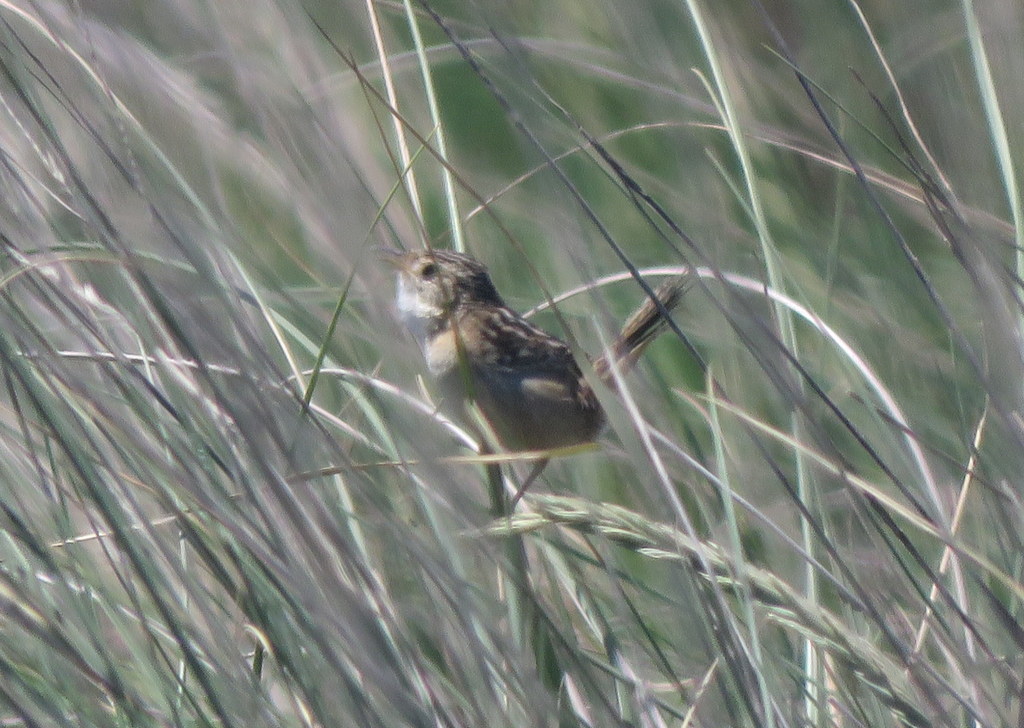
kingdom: Animalia
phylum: Chordata
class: Aves
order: Passeriformes
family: Troglodytidae
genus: Cistothorus
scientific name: Cistothorus platensis
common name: Sedge wren
